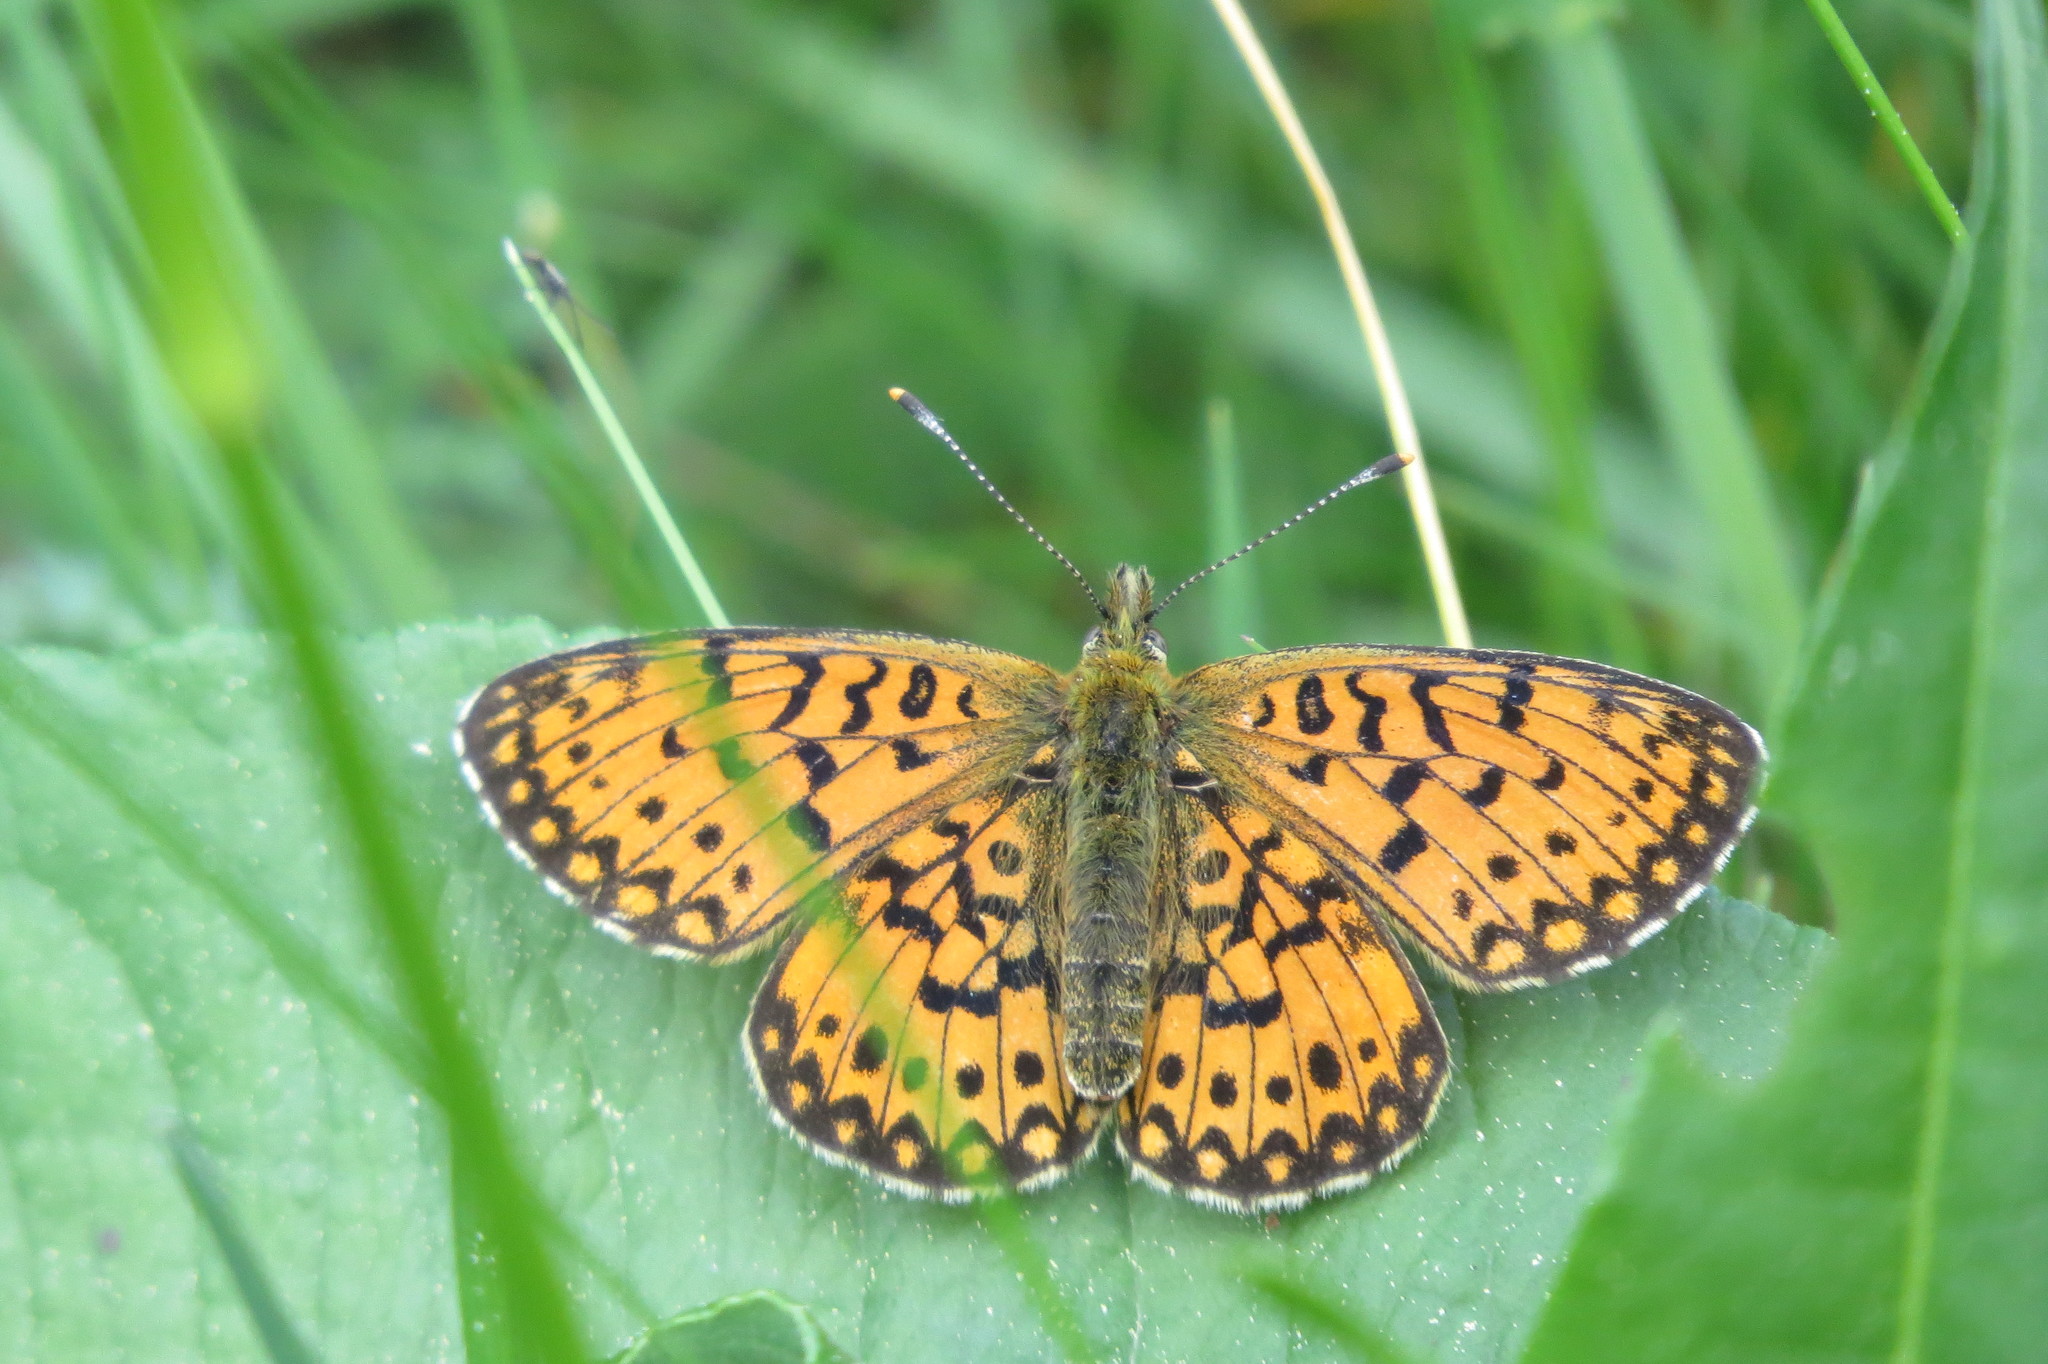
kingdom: Animalia
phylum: Arthropoda
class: Insecta
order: Lepidoptera
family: Nymphalidae
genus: Boloria
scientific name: Boloria selene
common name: Small pearl-bordered fritillary
